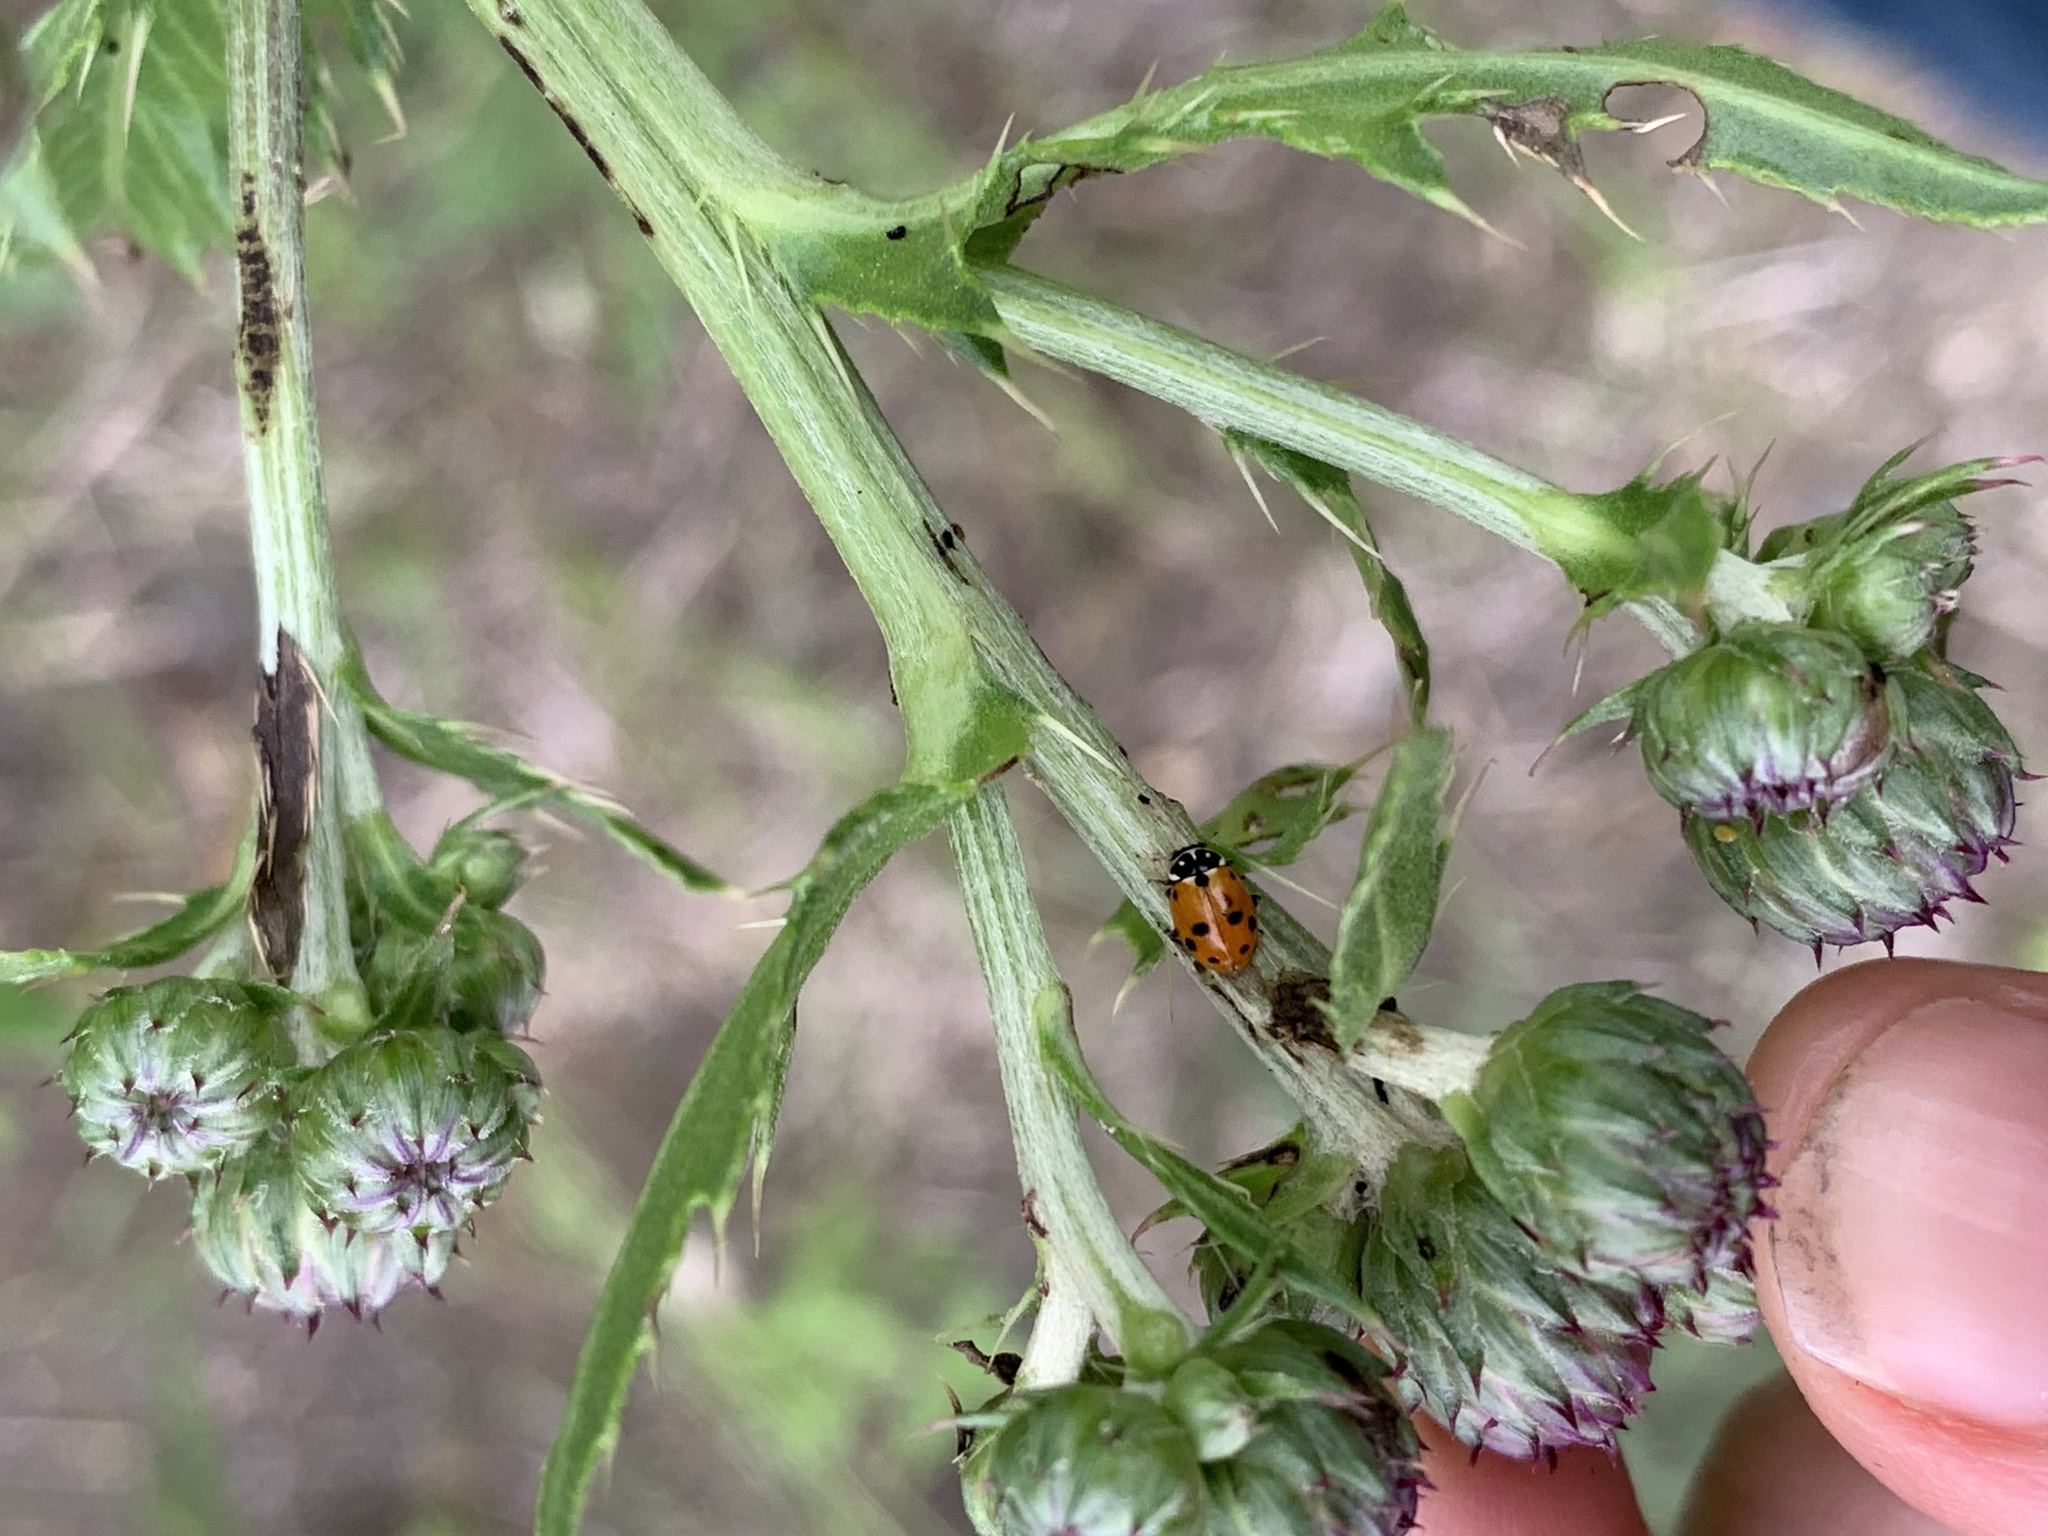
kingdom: Animalia
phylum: Arthropoda
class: Insecta
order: Coleoptera
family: Coccinellidae
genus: Hippodamia
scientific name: Hippodamia variegata
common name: Ladybird beetle
